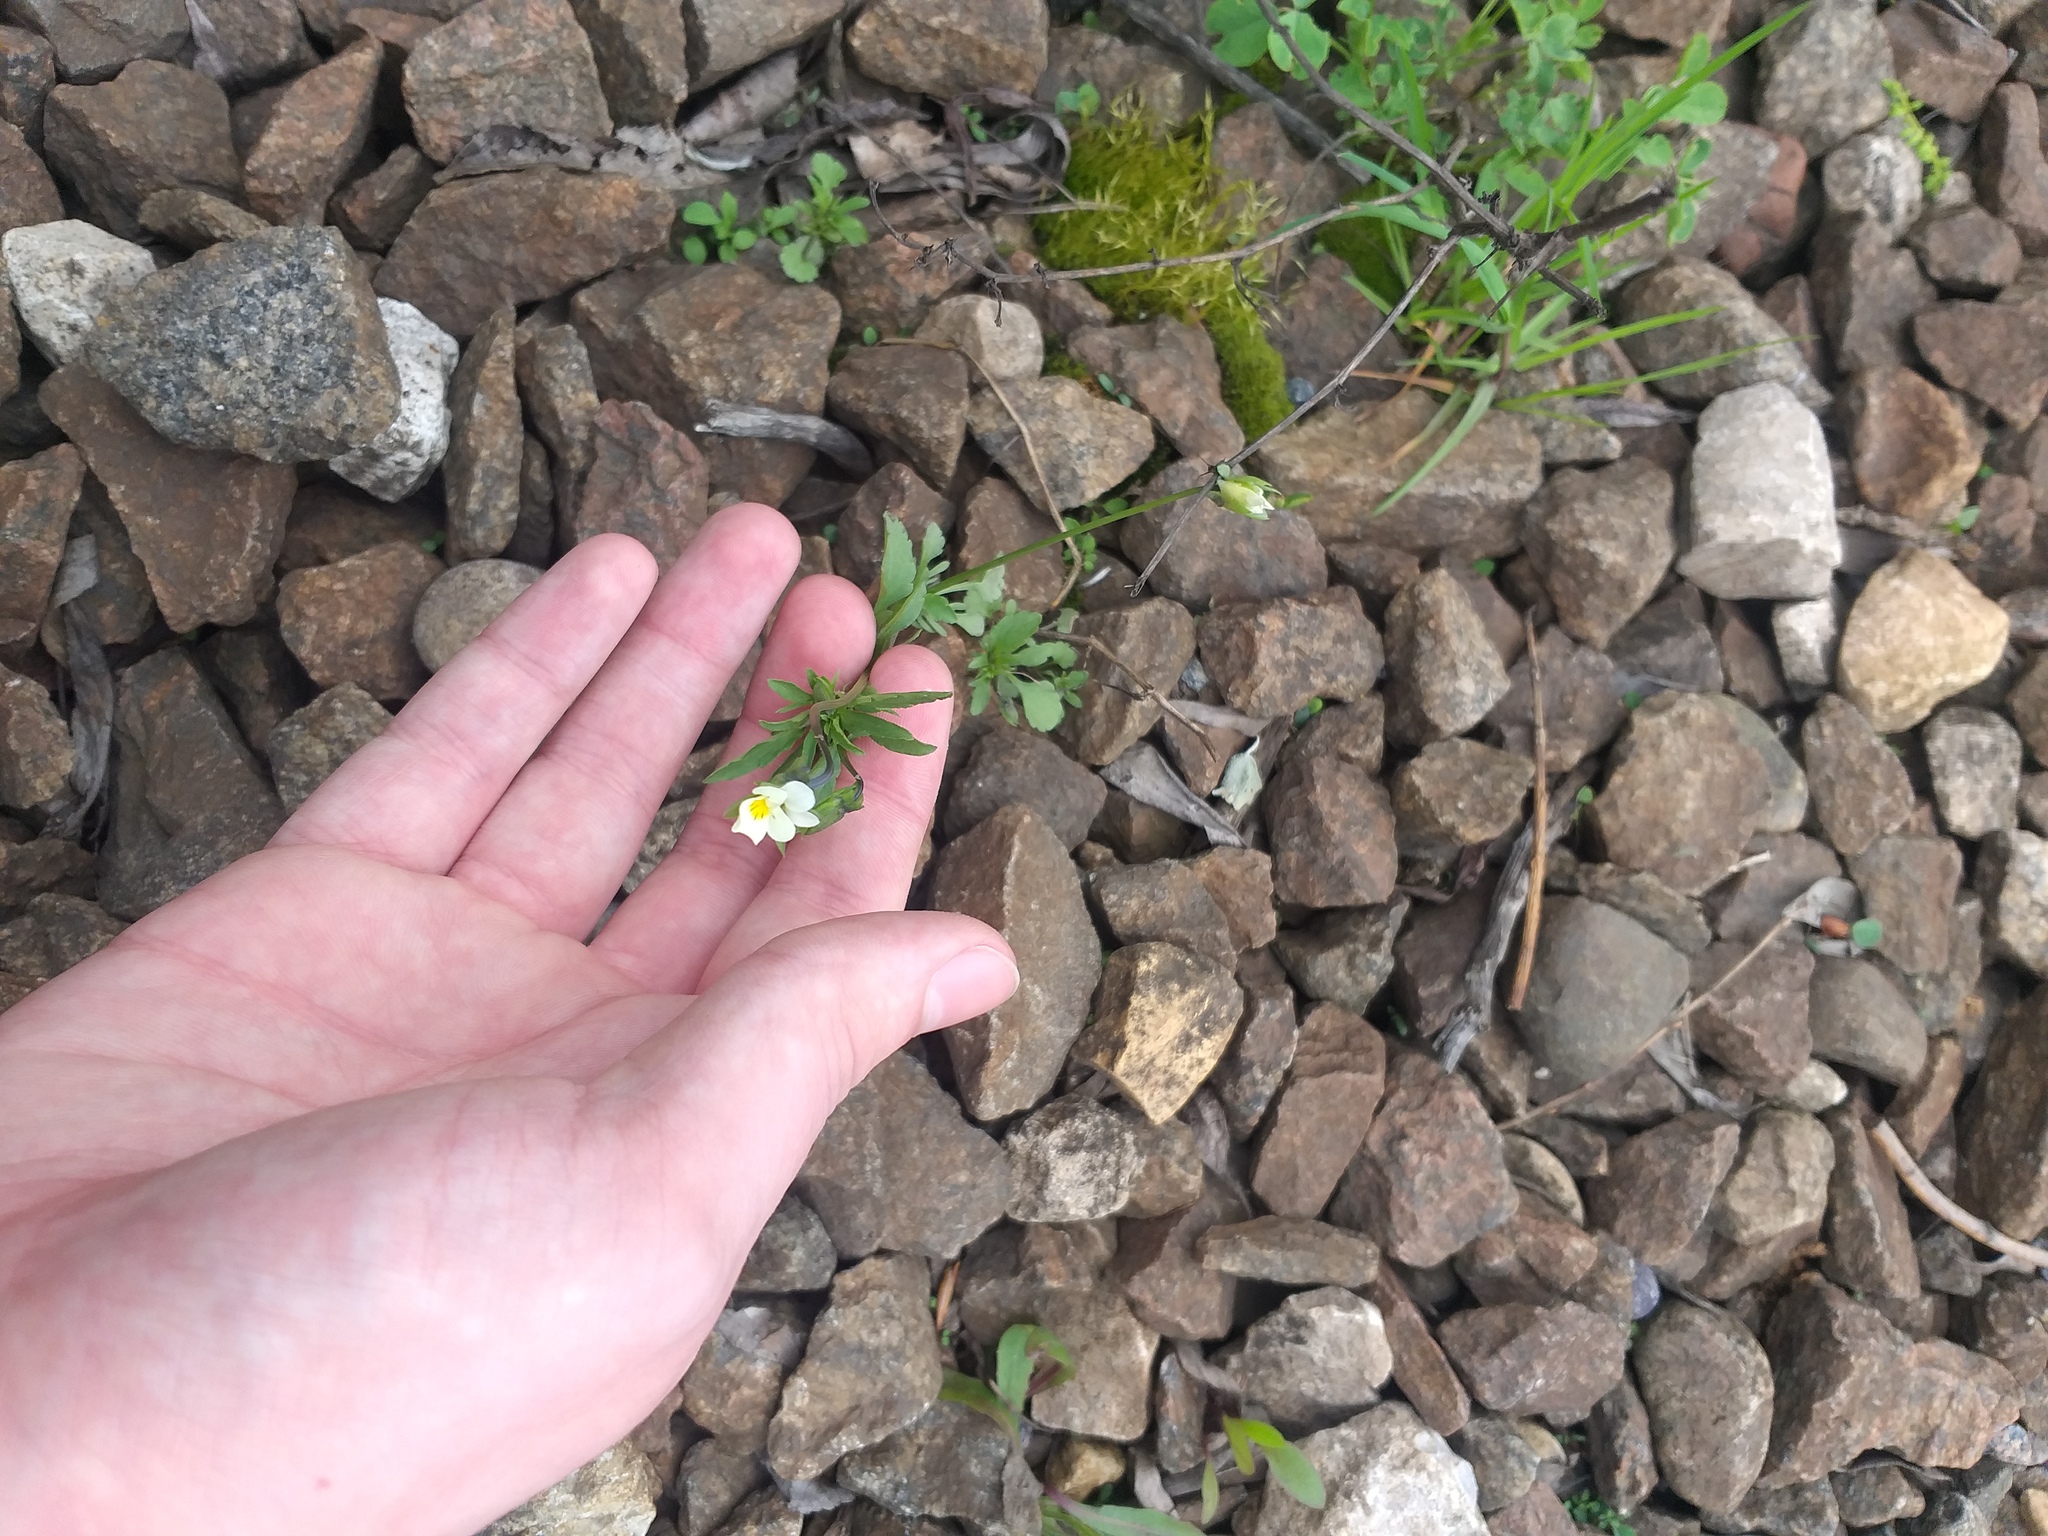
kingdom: Plantae
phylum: Tracheophyta
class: Magnoliopsida
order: Malpighiales
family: Violaceae
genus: Viola
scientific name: Viola arvensis
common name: Field pansy
